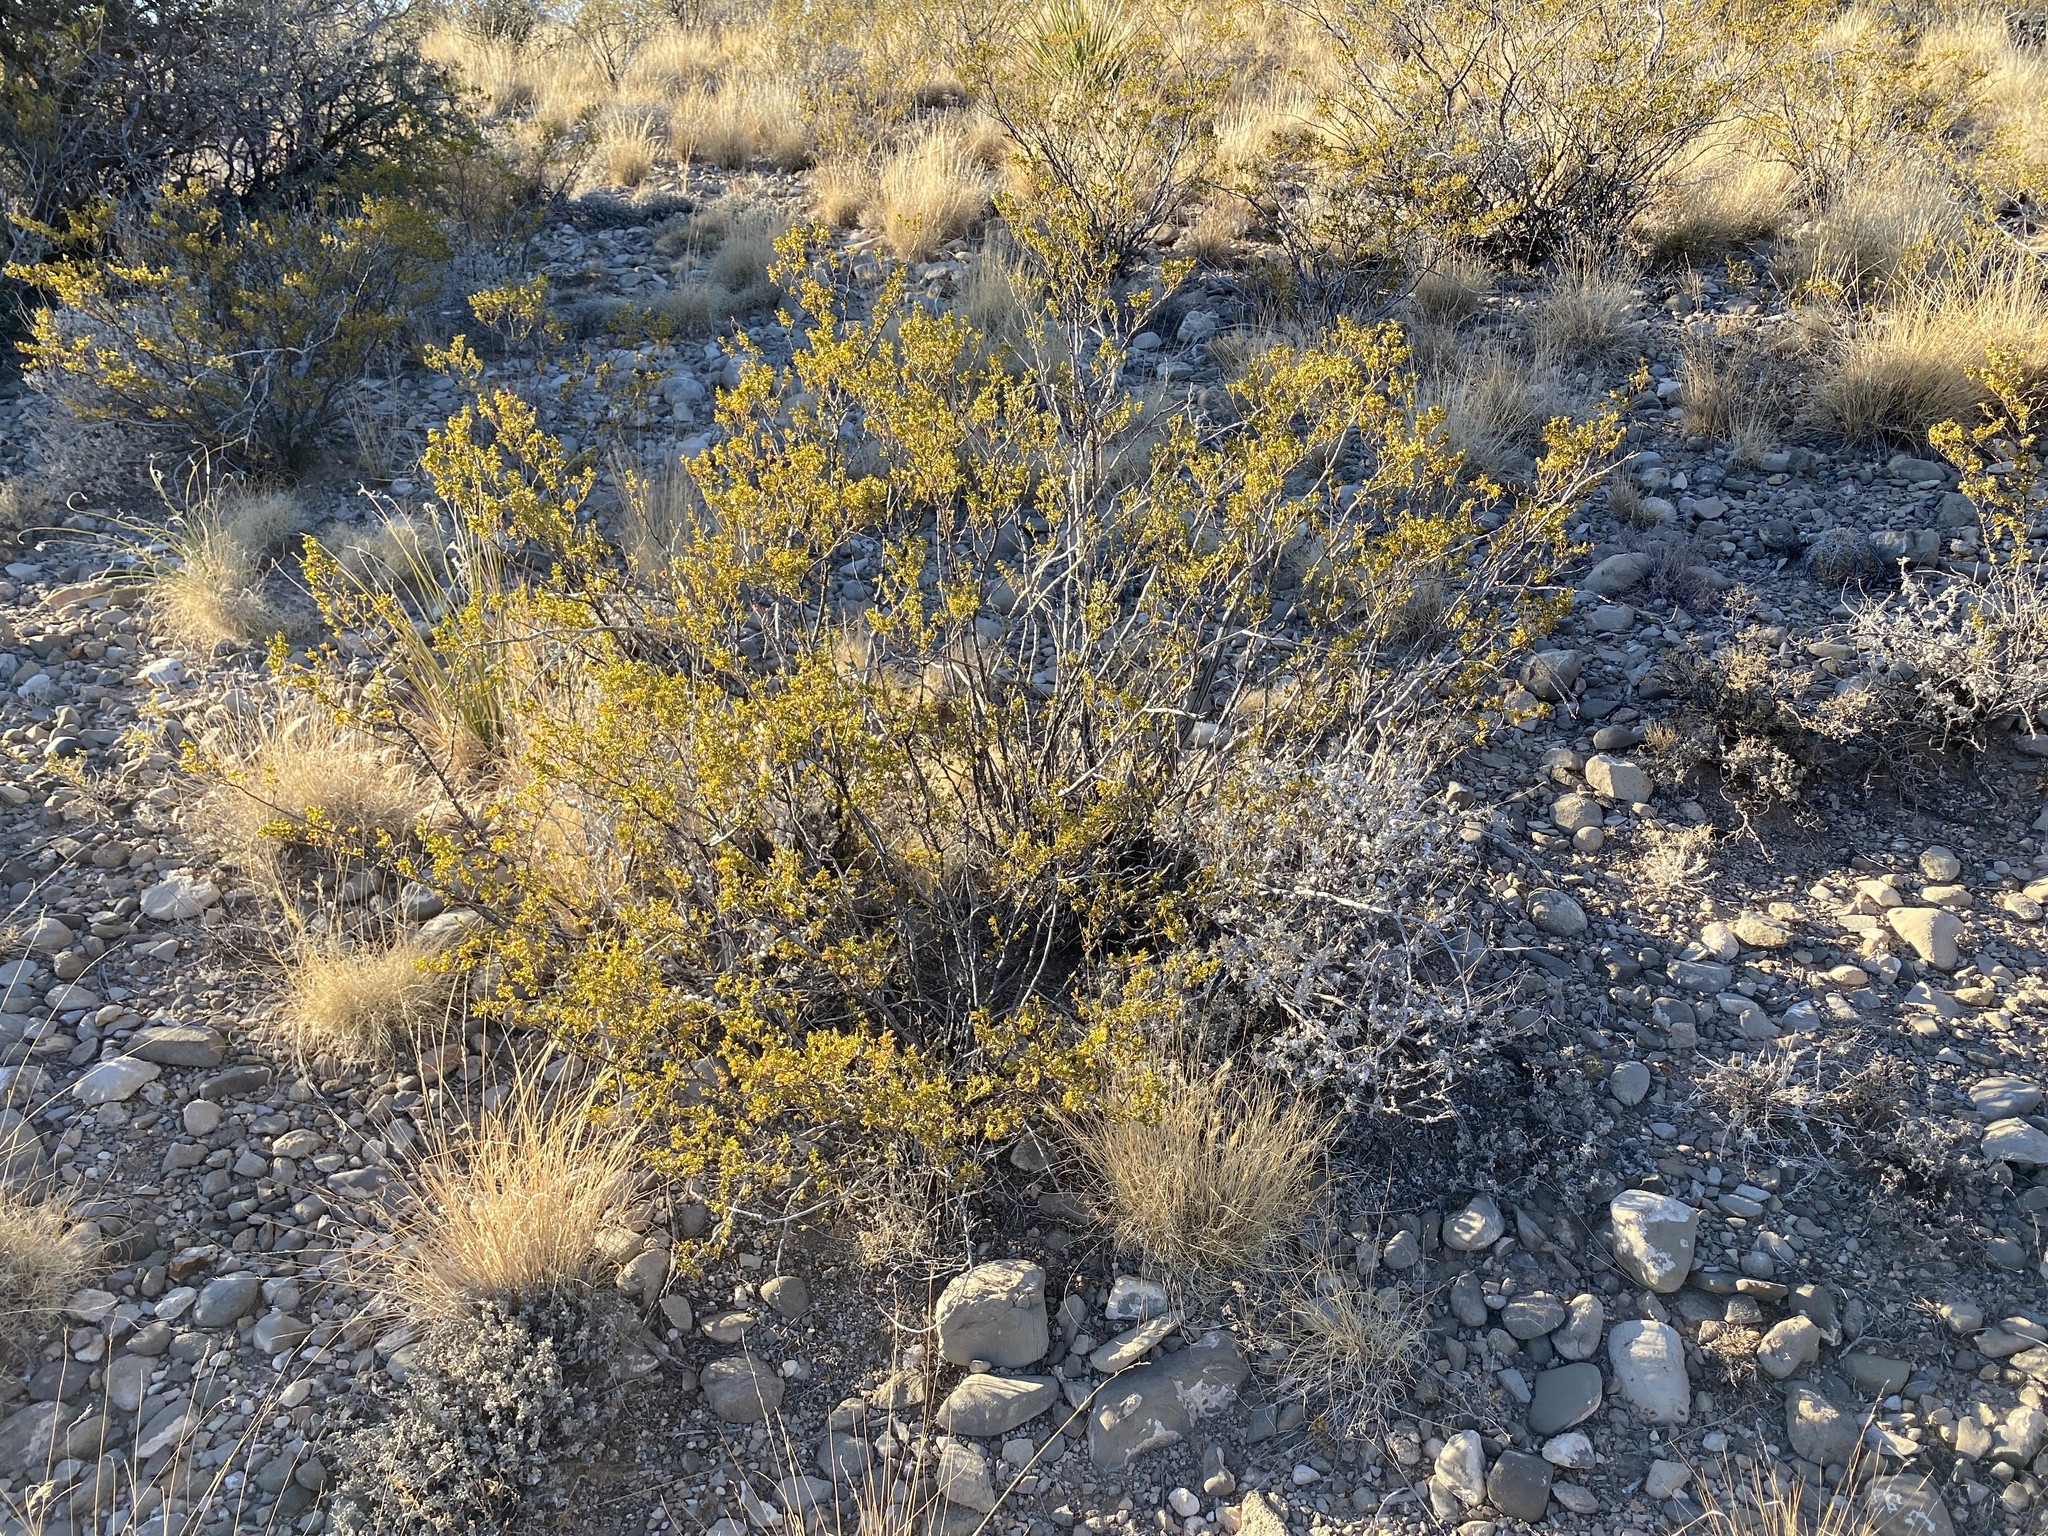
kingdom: Plantae
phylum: Tracheophyta
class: Magnoliopsida
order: Zygophyllales
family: Zygophyllaceae
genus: Larrea
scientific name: Larrea tridentata
